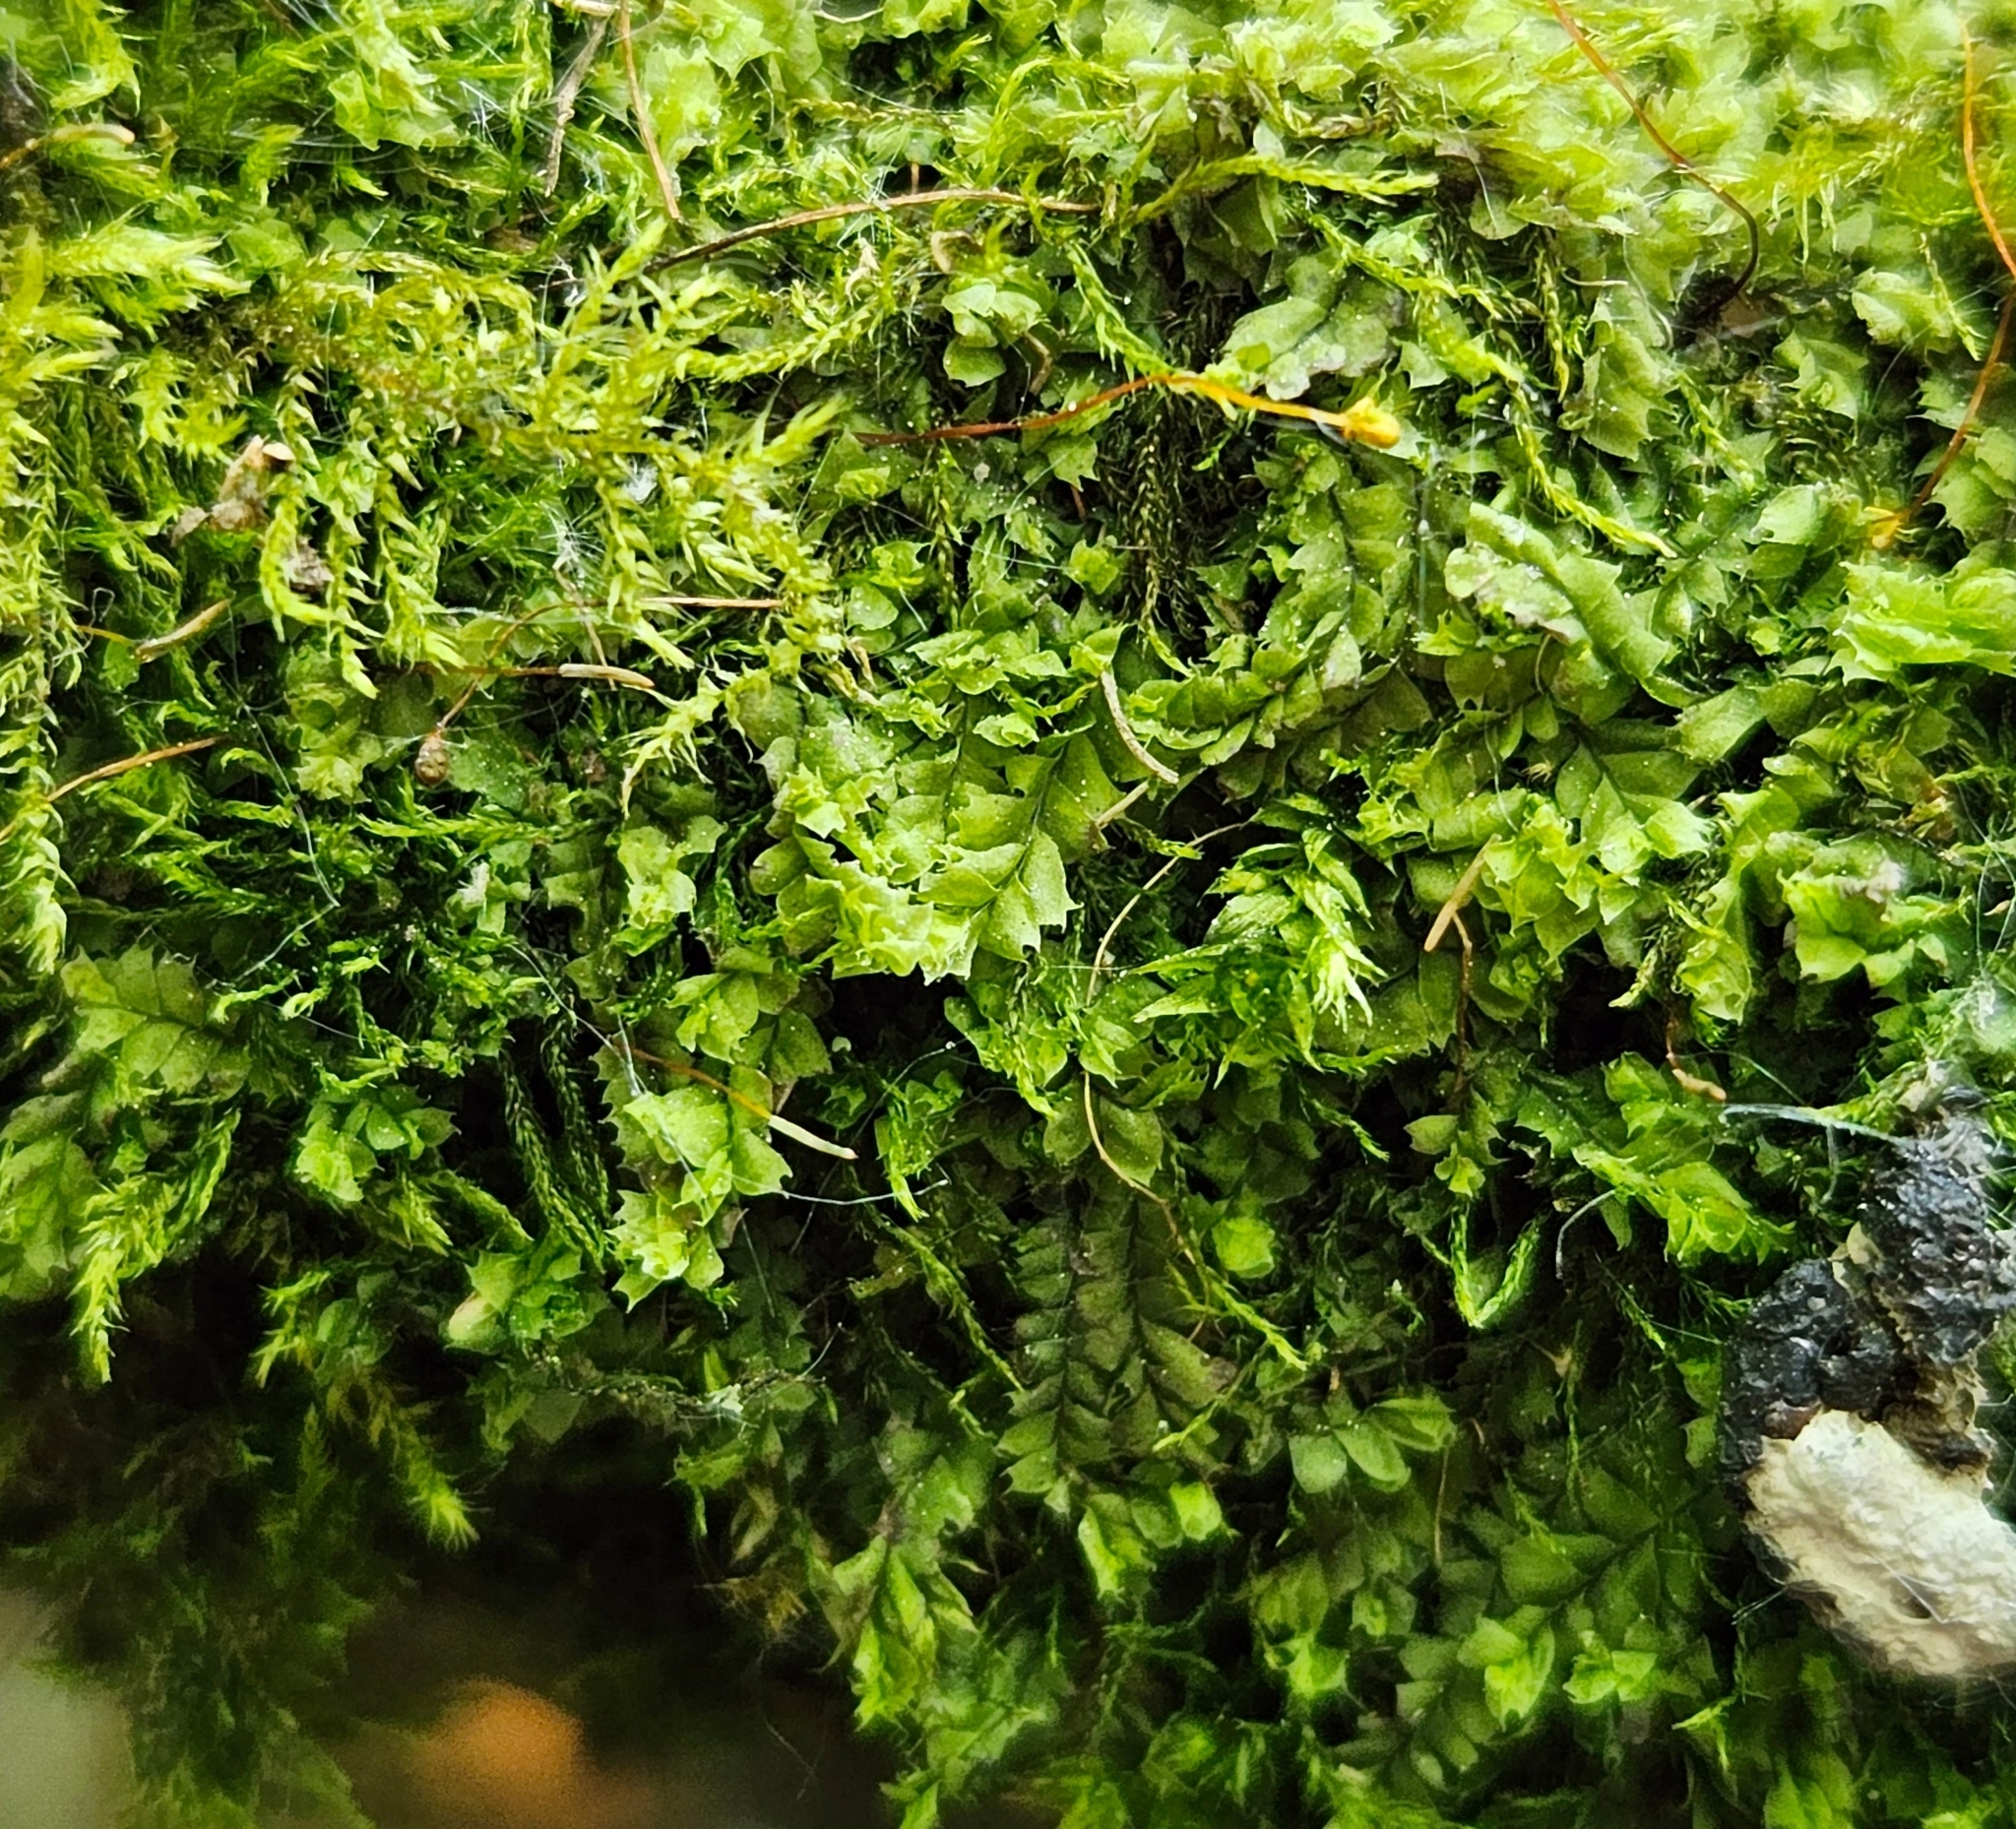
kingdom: Plantae
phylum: Marchantiophyta
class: Jungermanniopsida
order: Jungermanniales
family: Lophocoleaceae
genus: Lophocolea
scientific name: Lophocolea bidentata
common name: Bifid crestwort
